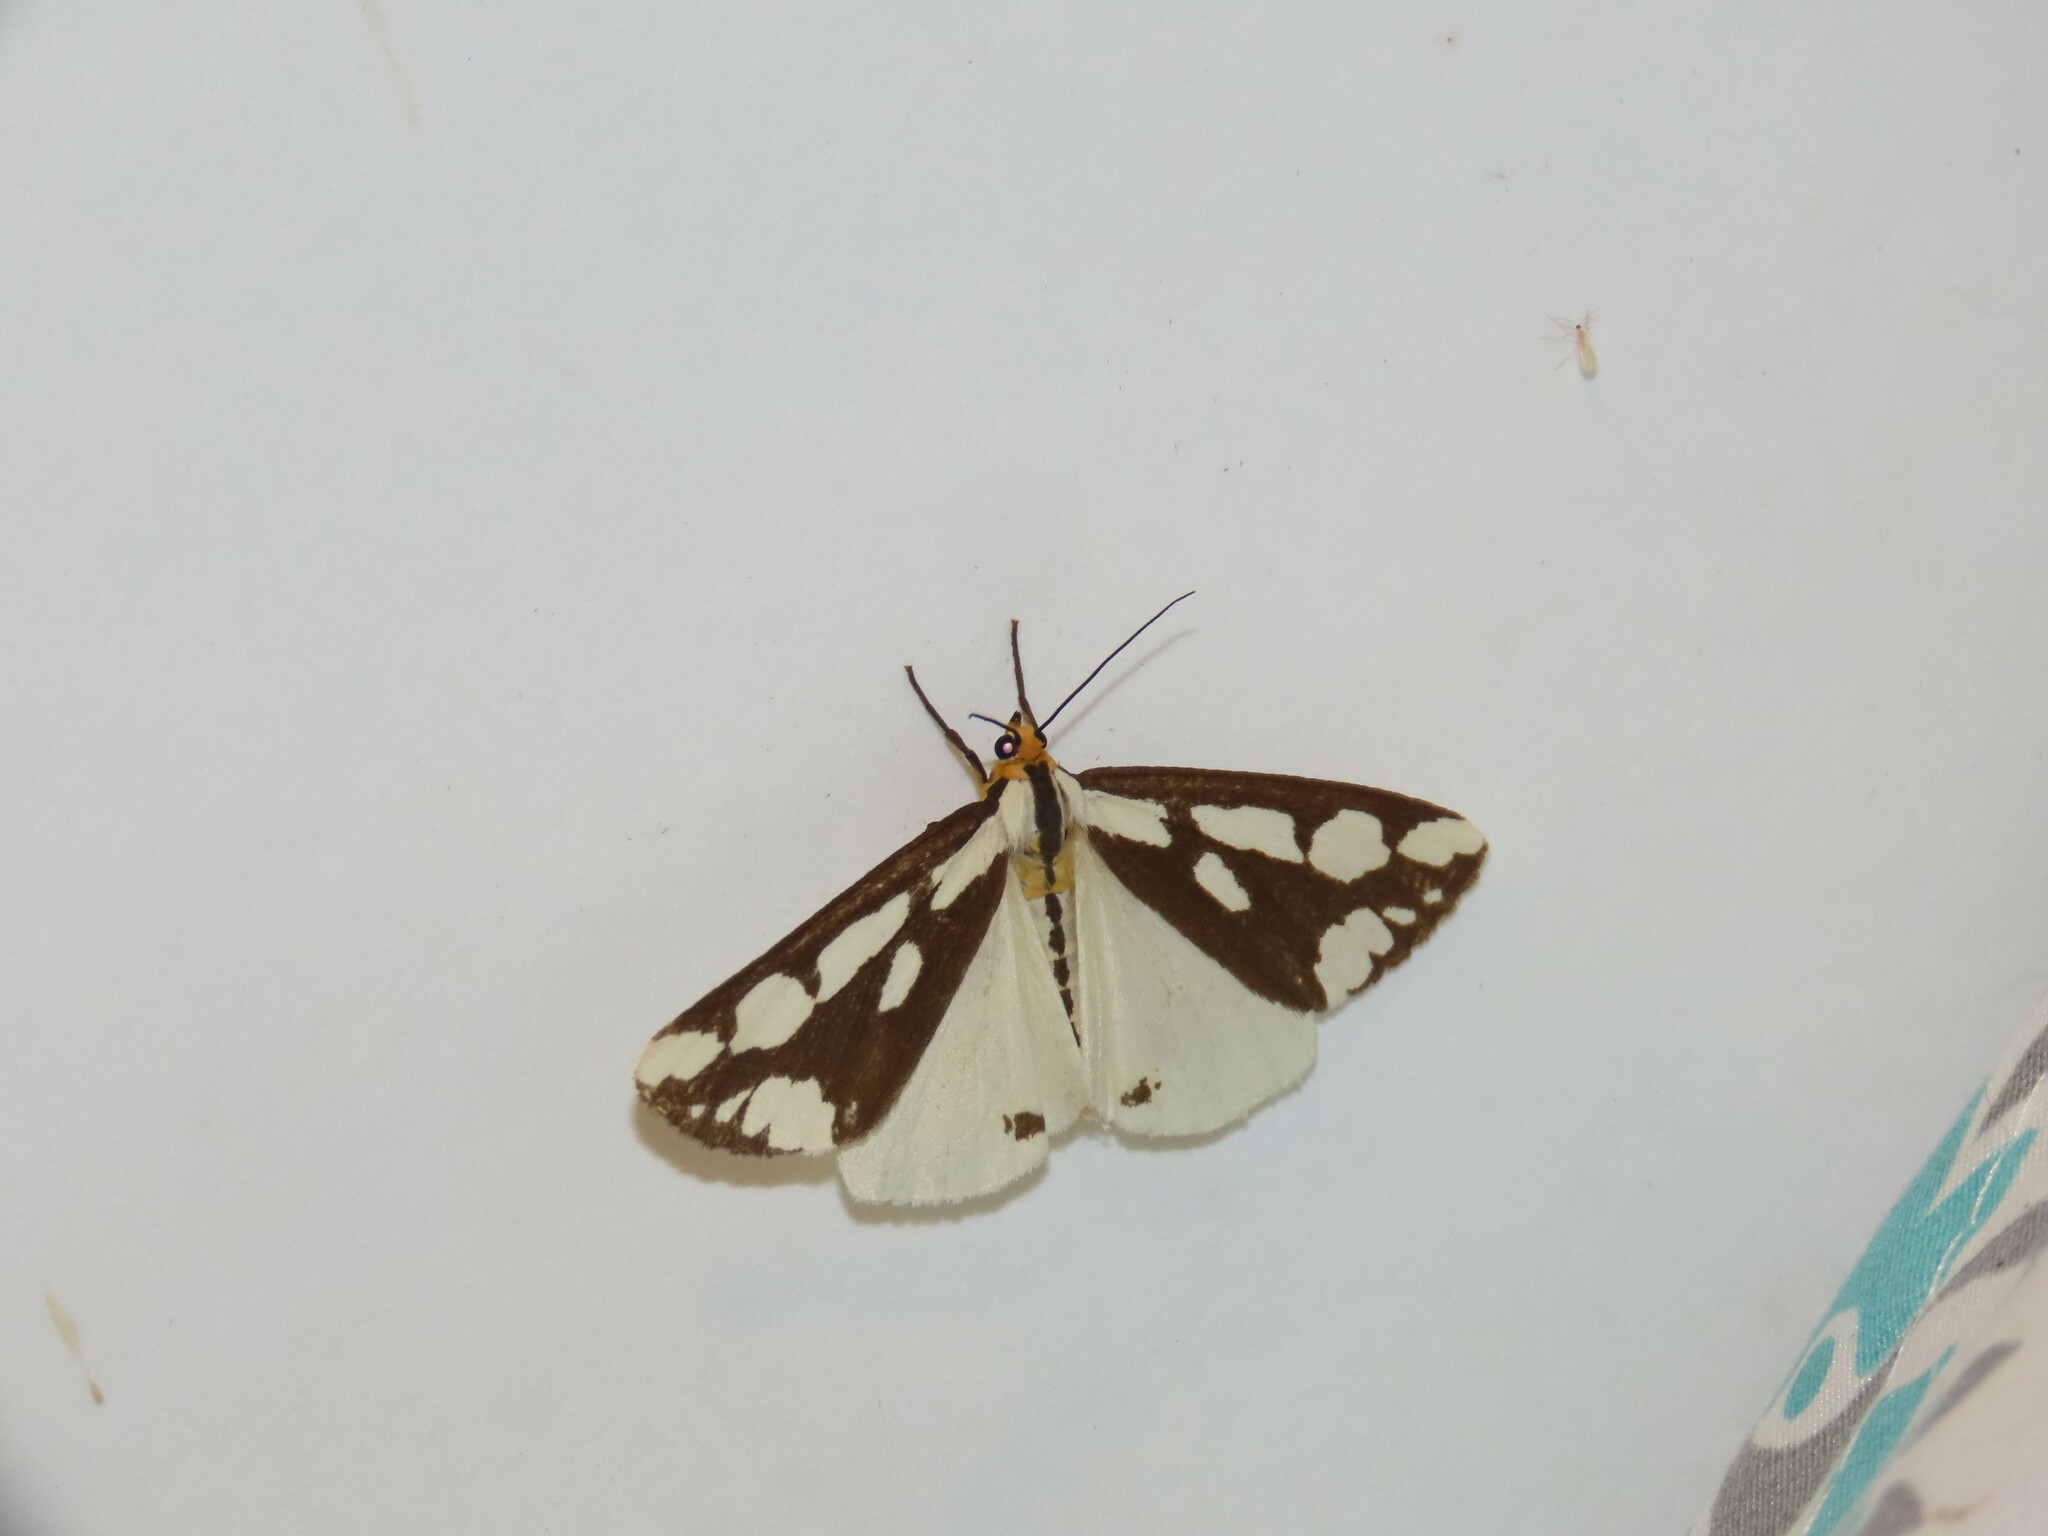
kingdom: Animalia
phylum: Arthropoda
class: Insecta
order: Lepidoptera
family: Erebidae
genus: Haploa
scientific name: Haploa confusa
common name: Confused haploa moth
